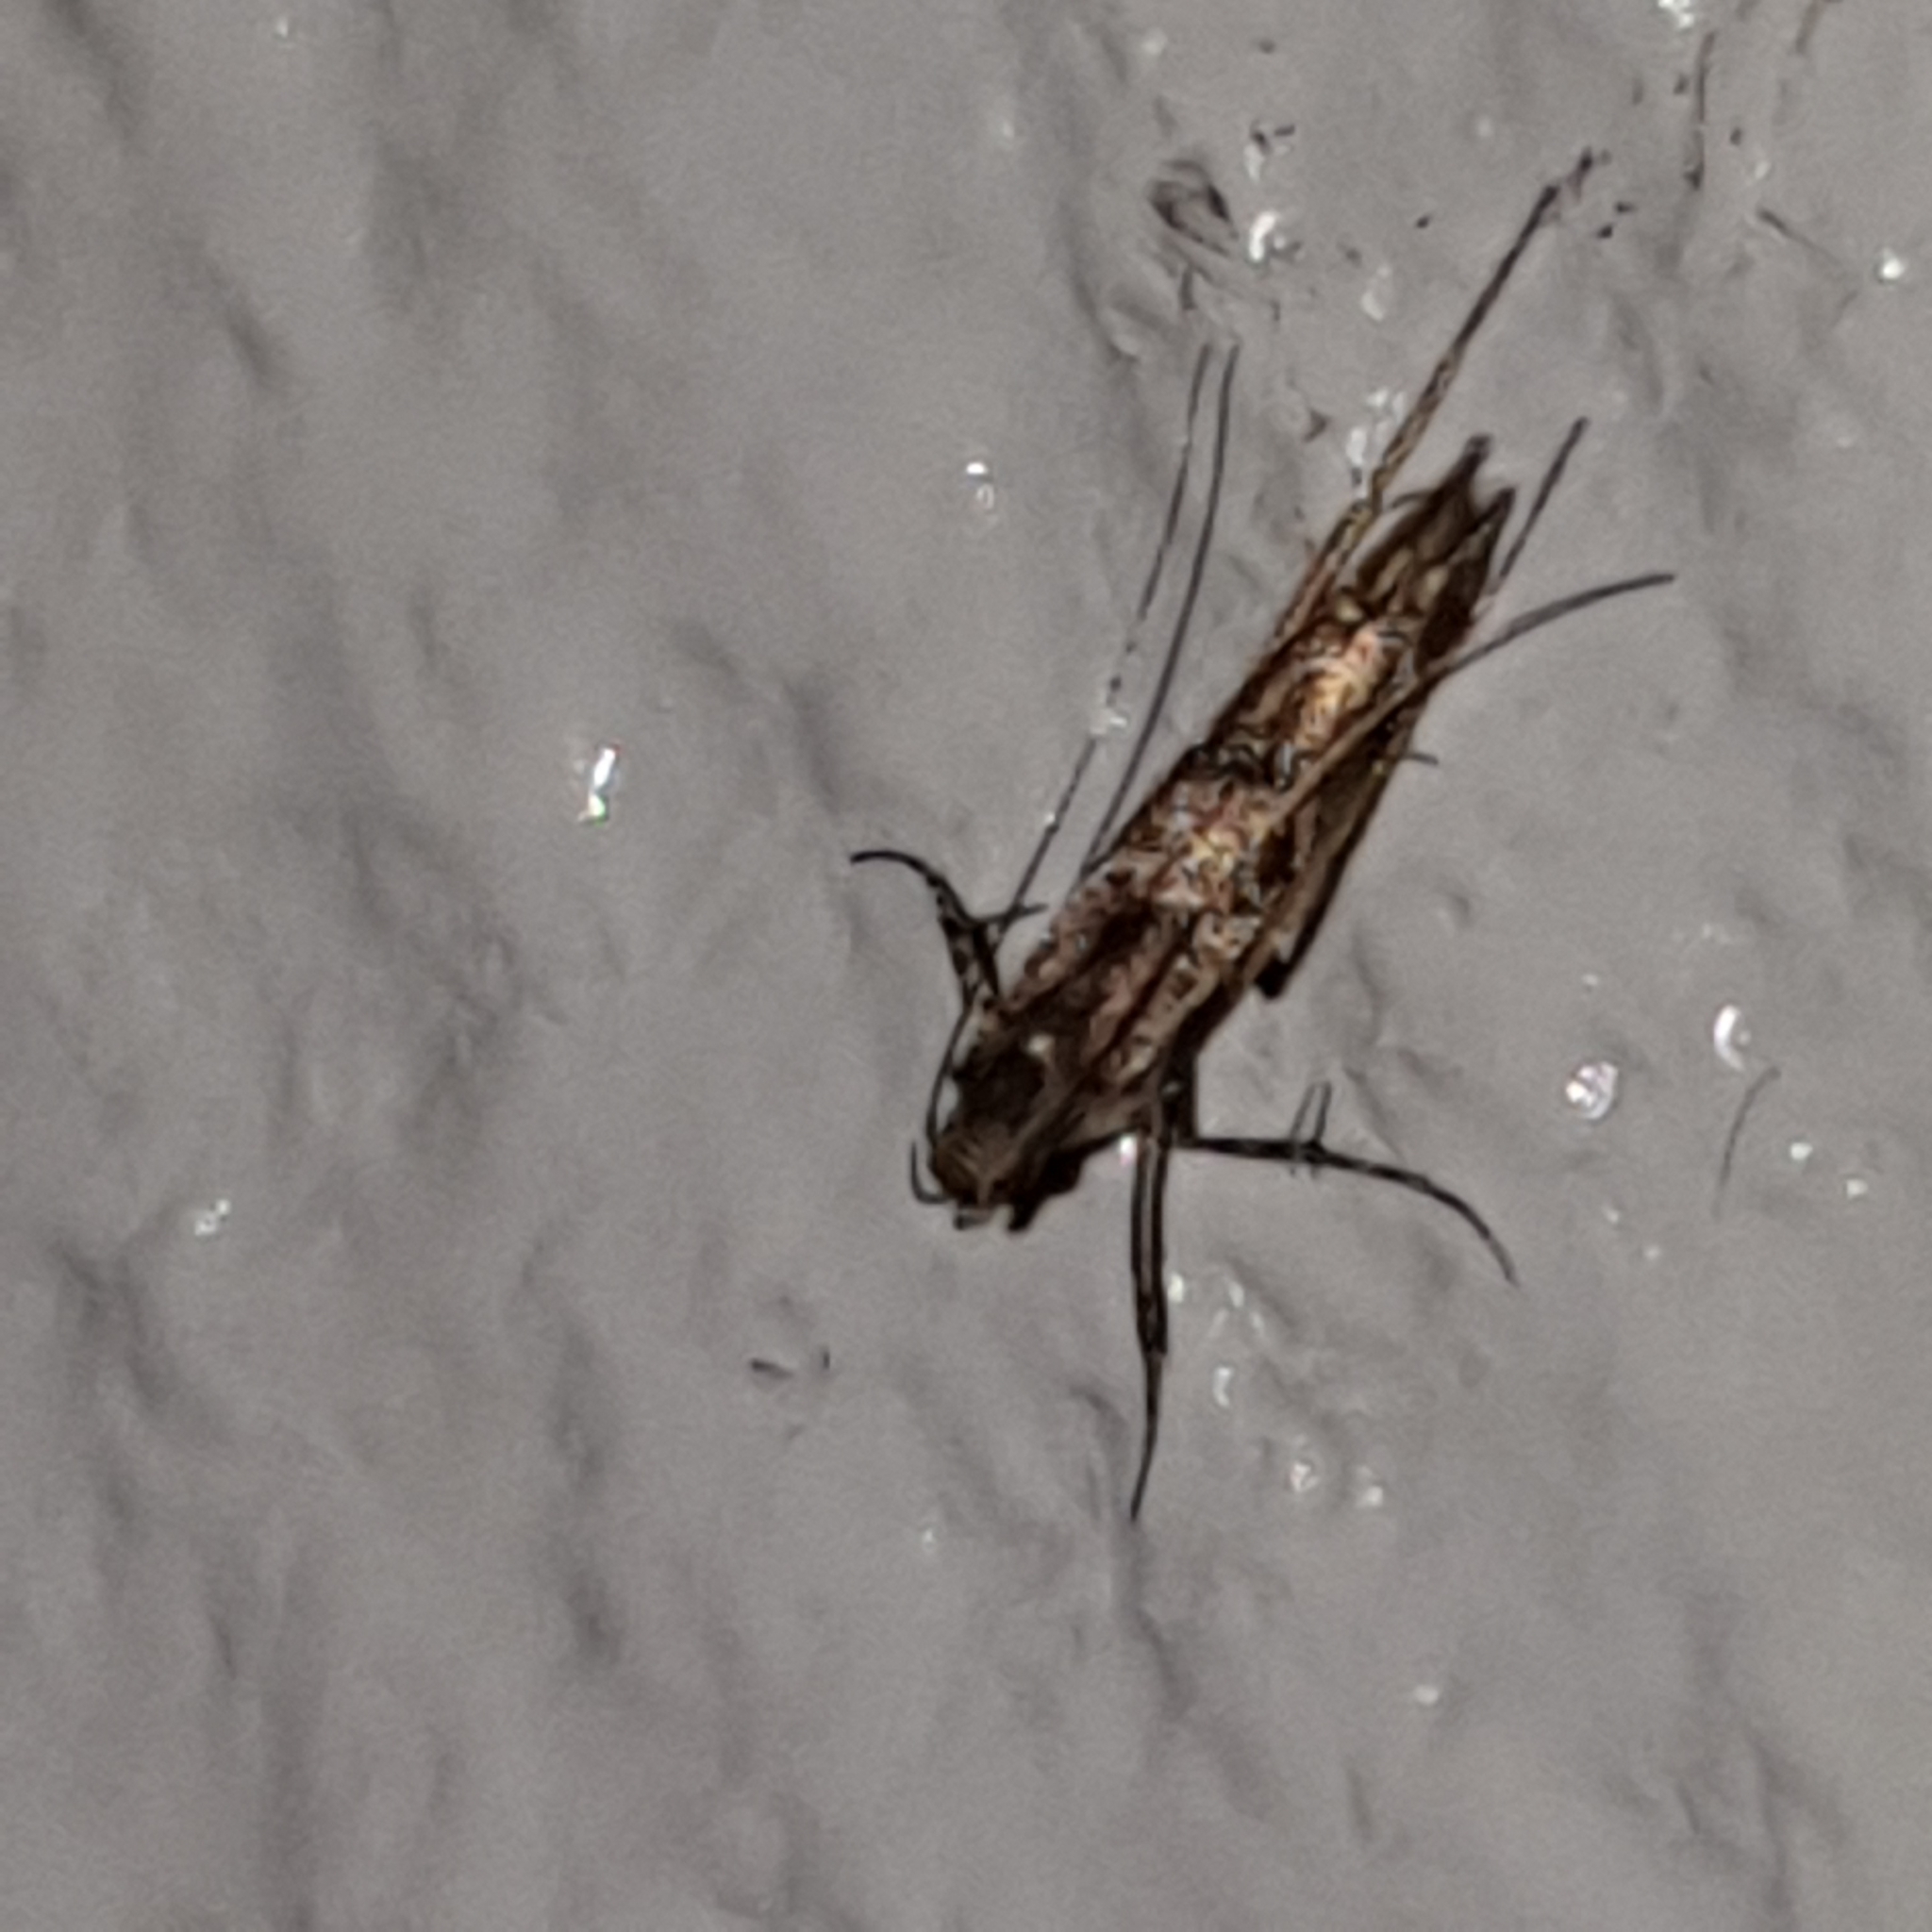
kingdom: Animalia
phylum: Arthropoda
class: Insecta
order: Lepidoptera
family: Gracillariidae
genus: Acrocercops
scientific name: Acrocercops brongniardella
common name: Brown oak slender
